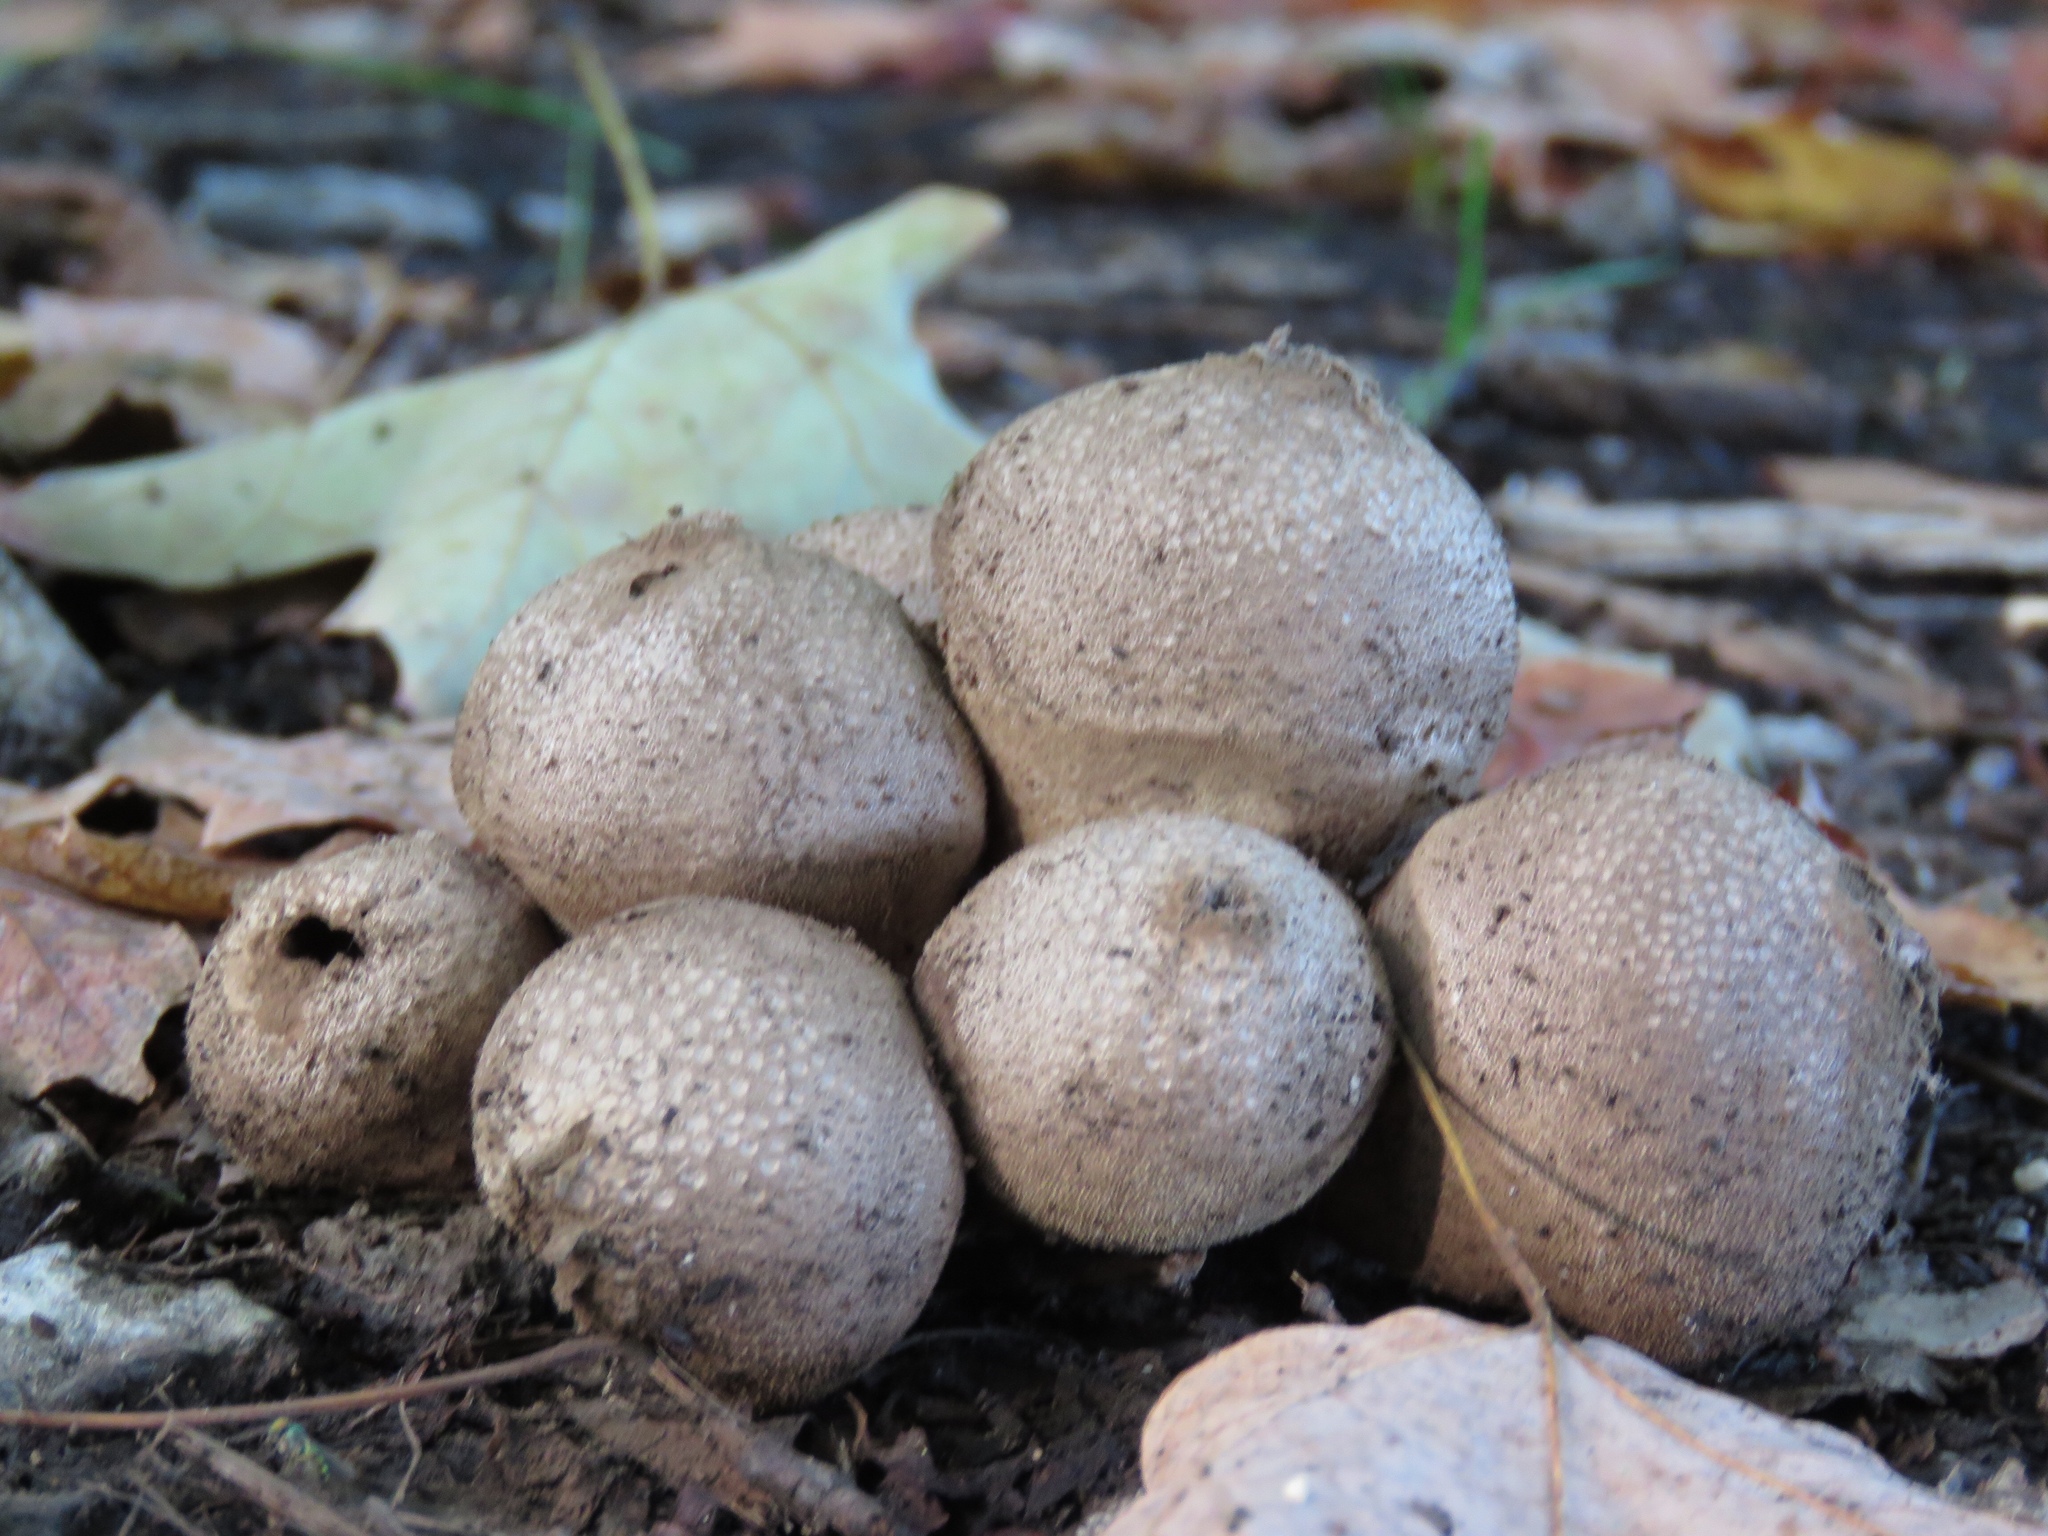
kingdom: Fungi
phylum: Basidiomycota
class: Agaricomycetes
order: Agaricales
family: Lycoperdaceae
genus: Lycoperdon
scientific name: Lycoperdon perlatum
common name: Common puffball
